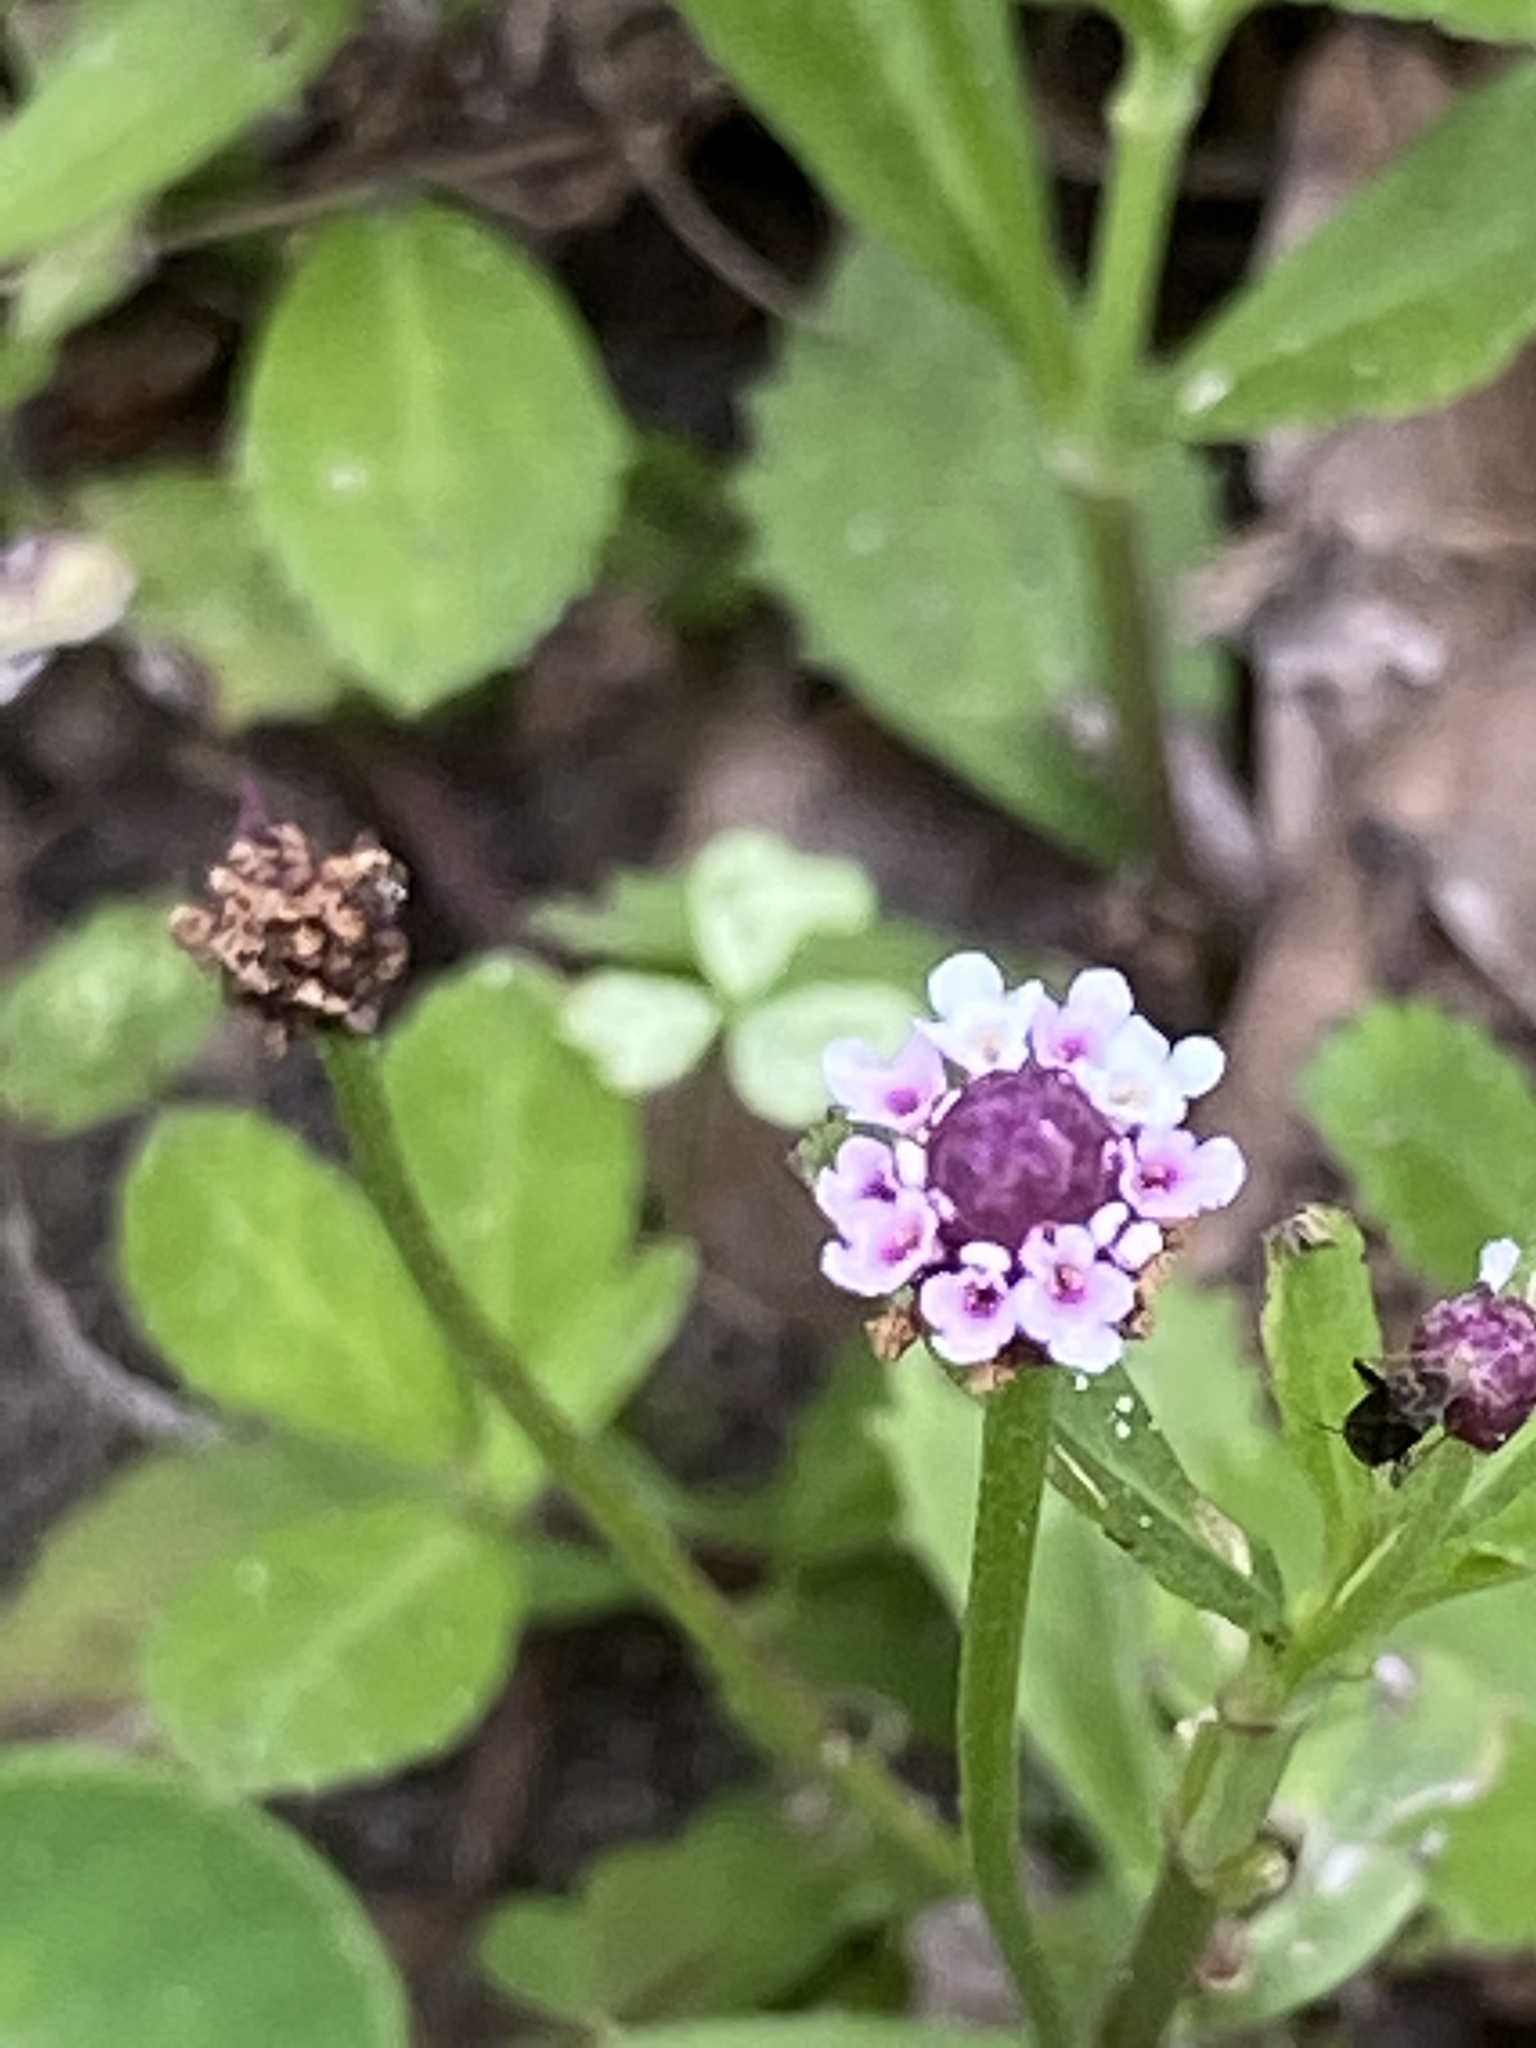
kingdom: Plantae
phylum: Tracheophyta
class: Magnoliopsida
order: Lamiales
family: Verbenaceae
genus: Phyla
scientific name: Phyla nodiflora
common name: Frogfruit
